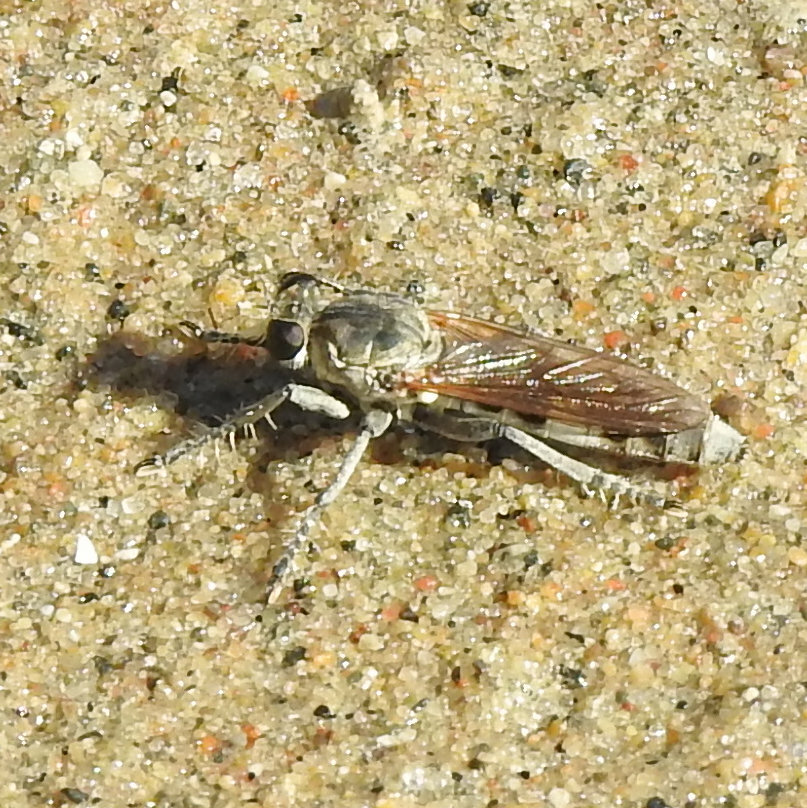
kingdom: Animalia
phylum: Arthropoda
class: Insecta
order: Diptera
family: Asilidae
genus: Stichopogon
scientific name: Stichopogon trifasciatus
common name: Three-banded robber fly
